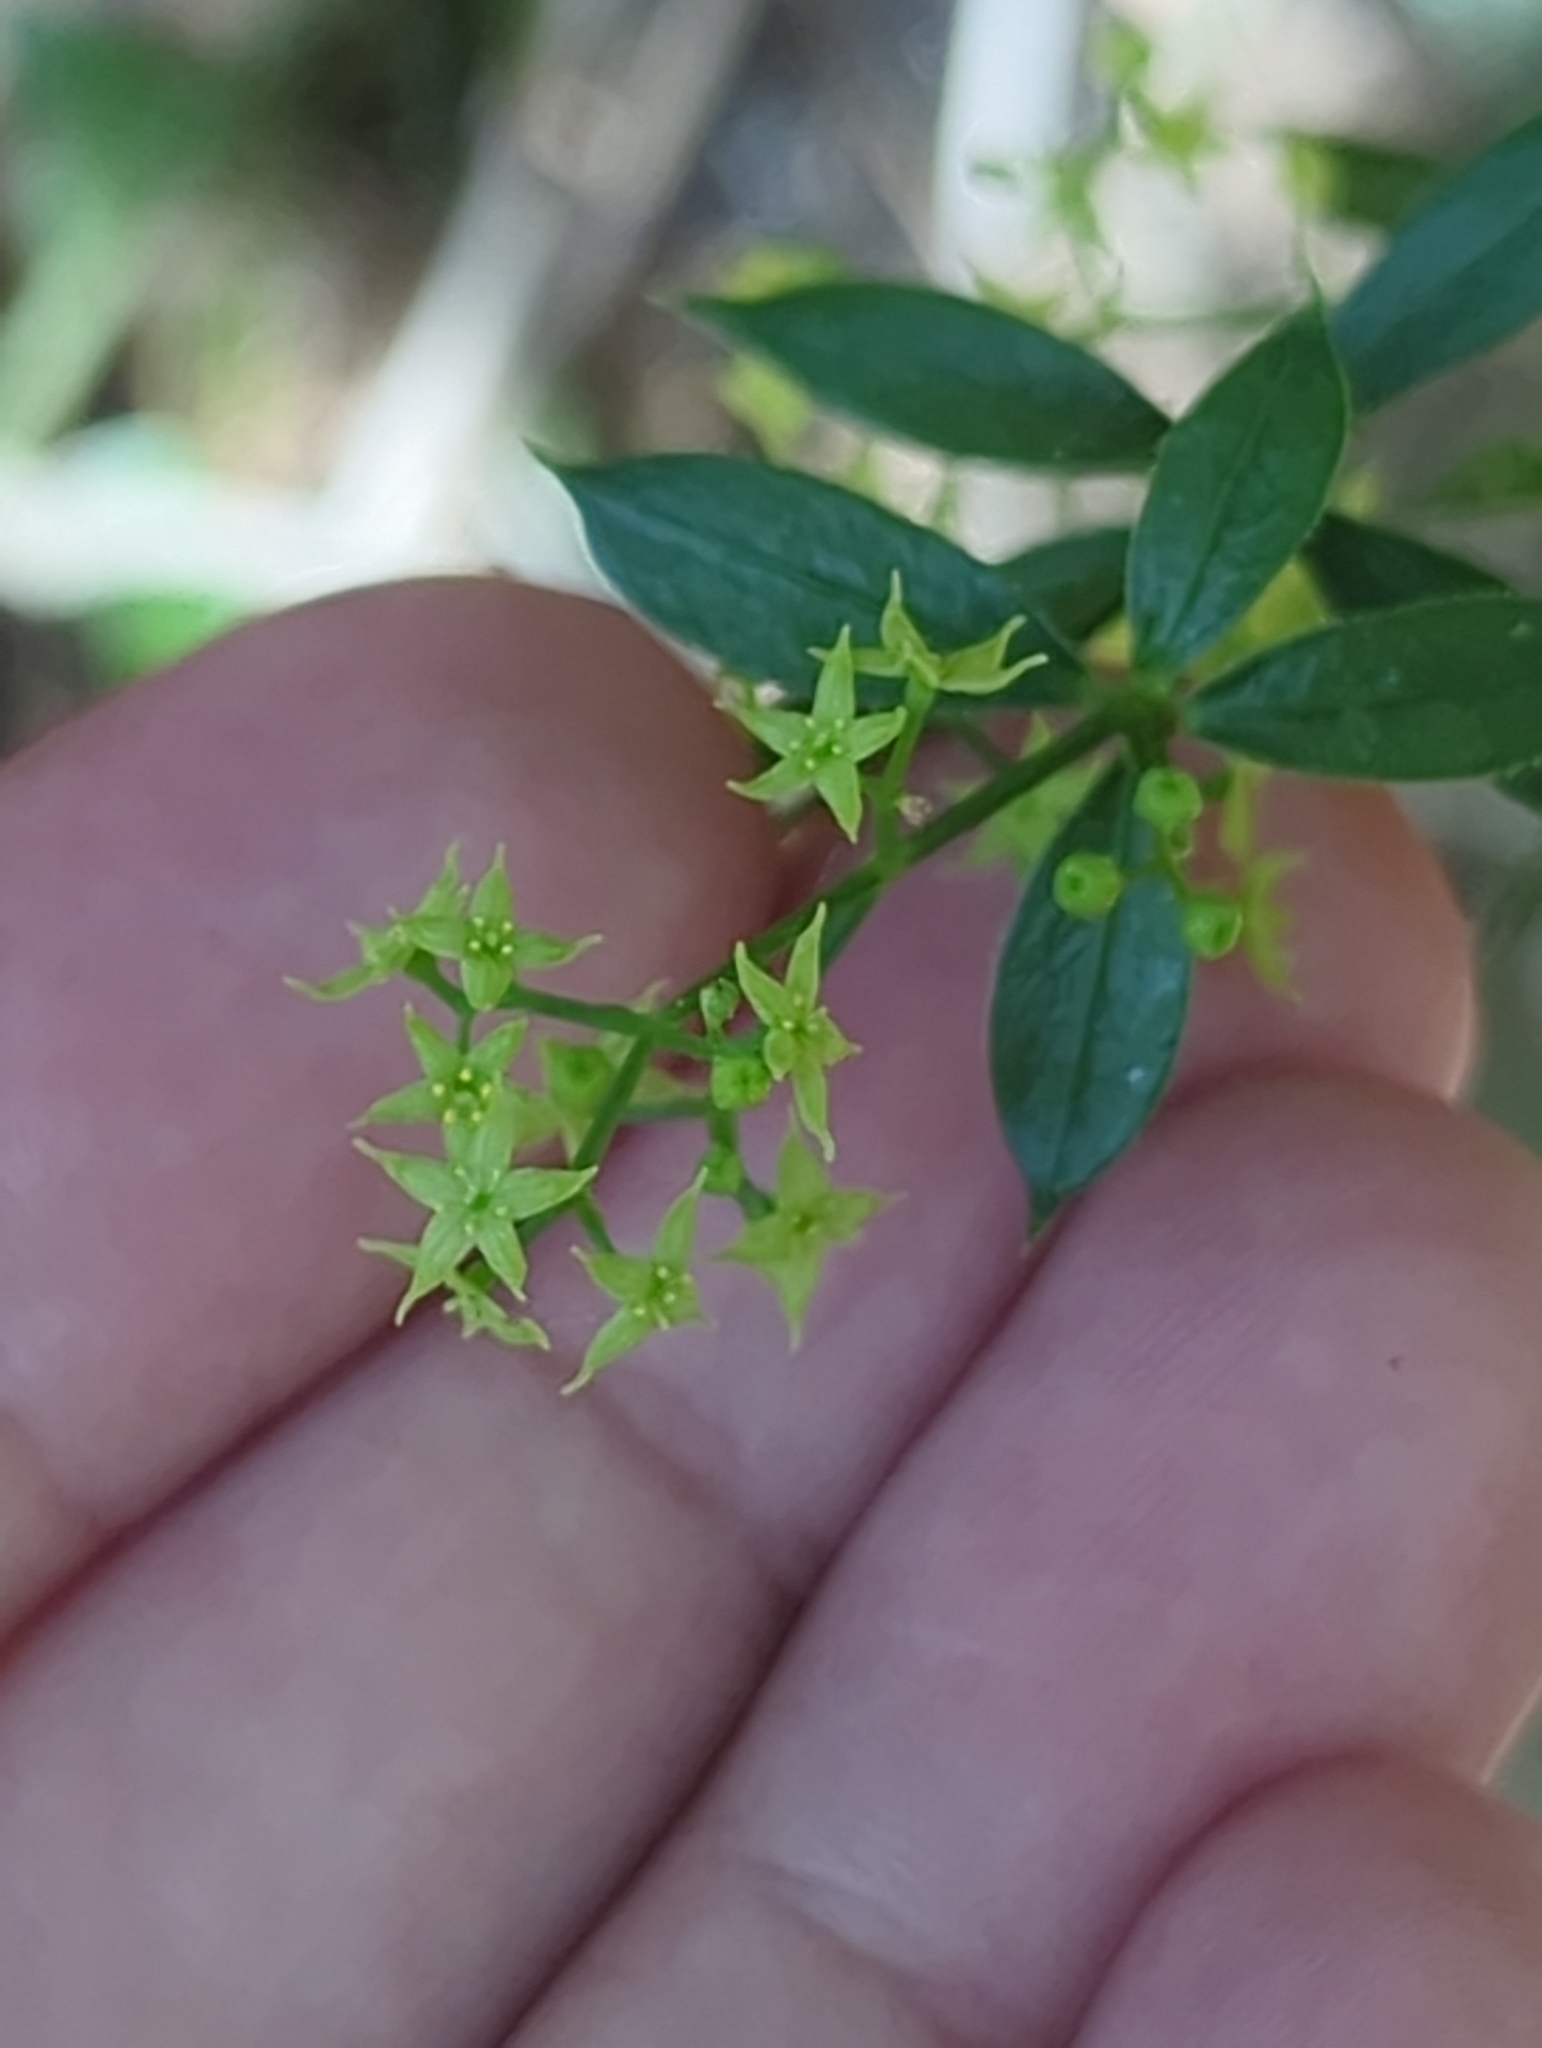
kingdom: Plantae
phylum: Tracheophyta
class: Magnoliopsida
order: Gentianales
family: Rubiaceae
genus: Rubia
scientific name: Rubia peregrina
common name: Wild madder
